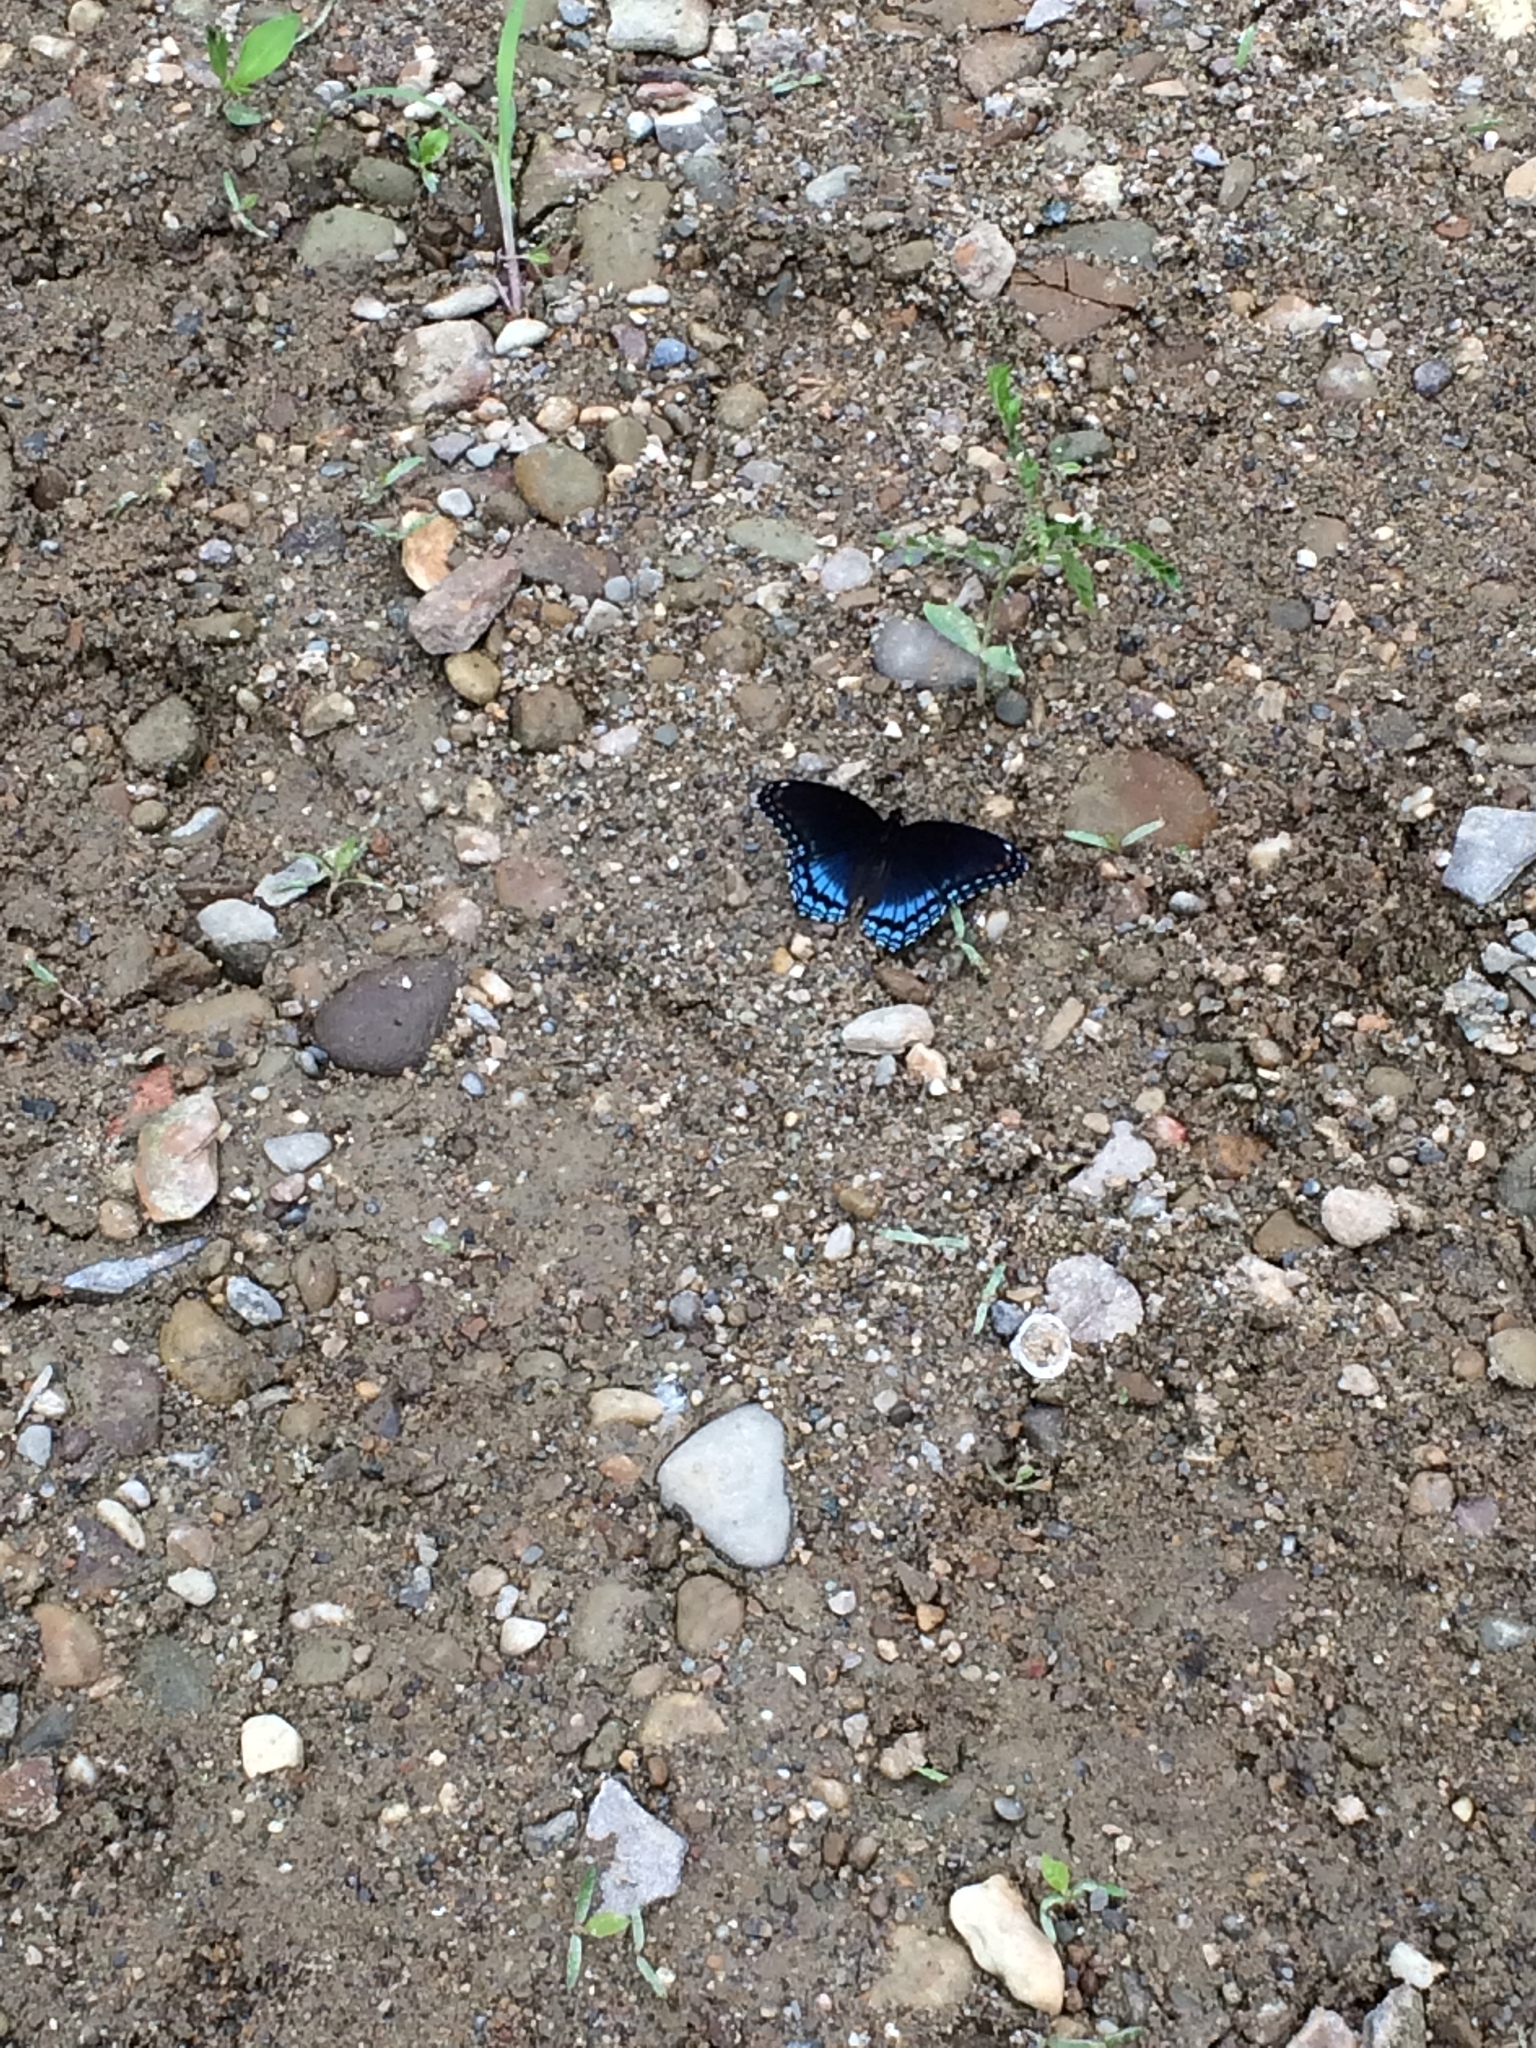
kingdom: Animalia
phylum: Arthropoda
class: Insecta
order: Lepidoptera
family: Nymphalidae
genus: Limenitis
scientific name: Limenitis astyanax
